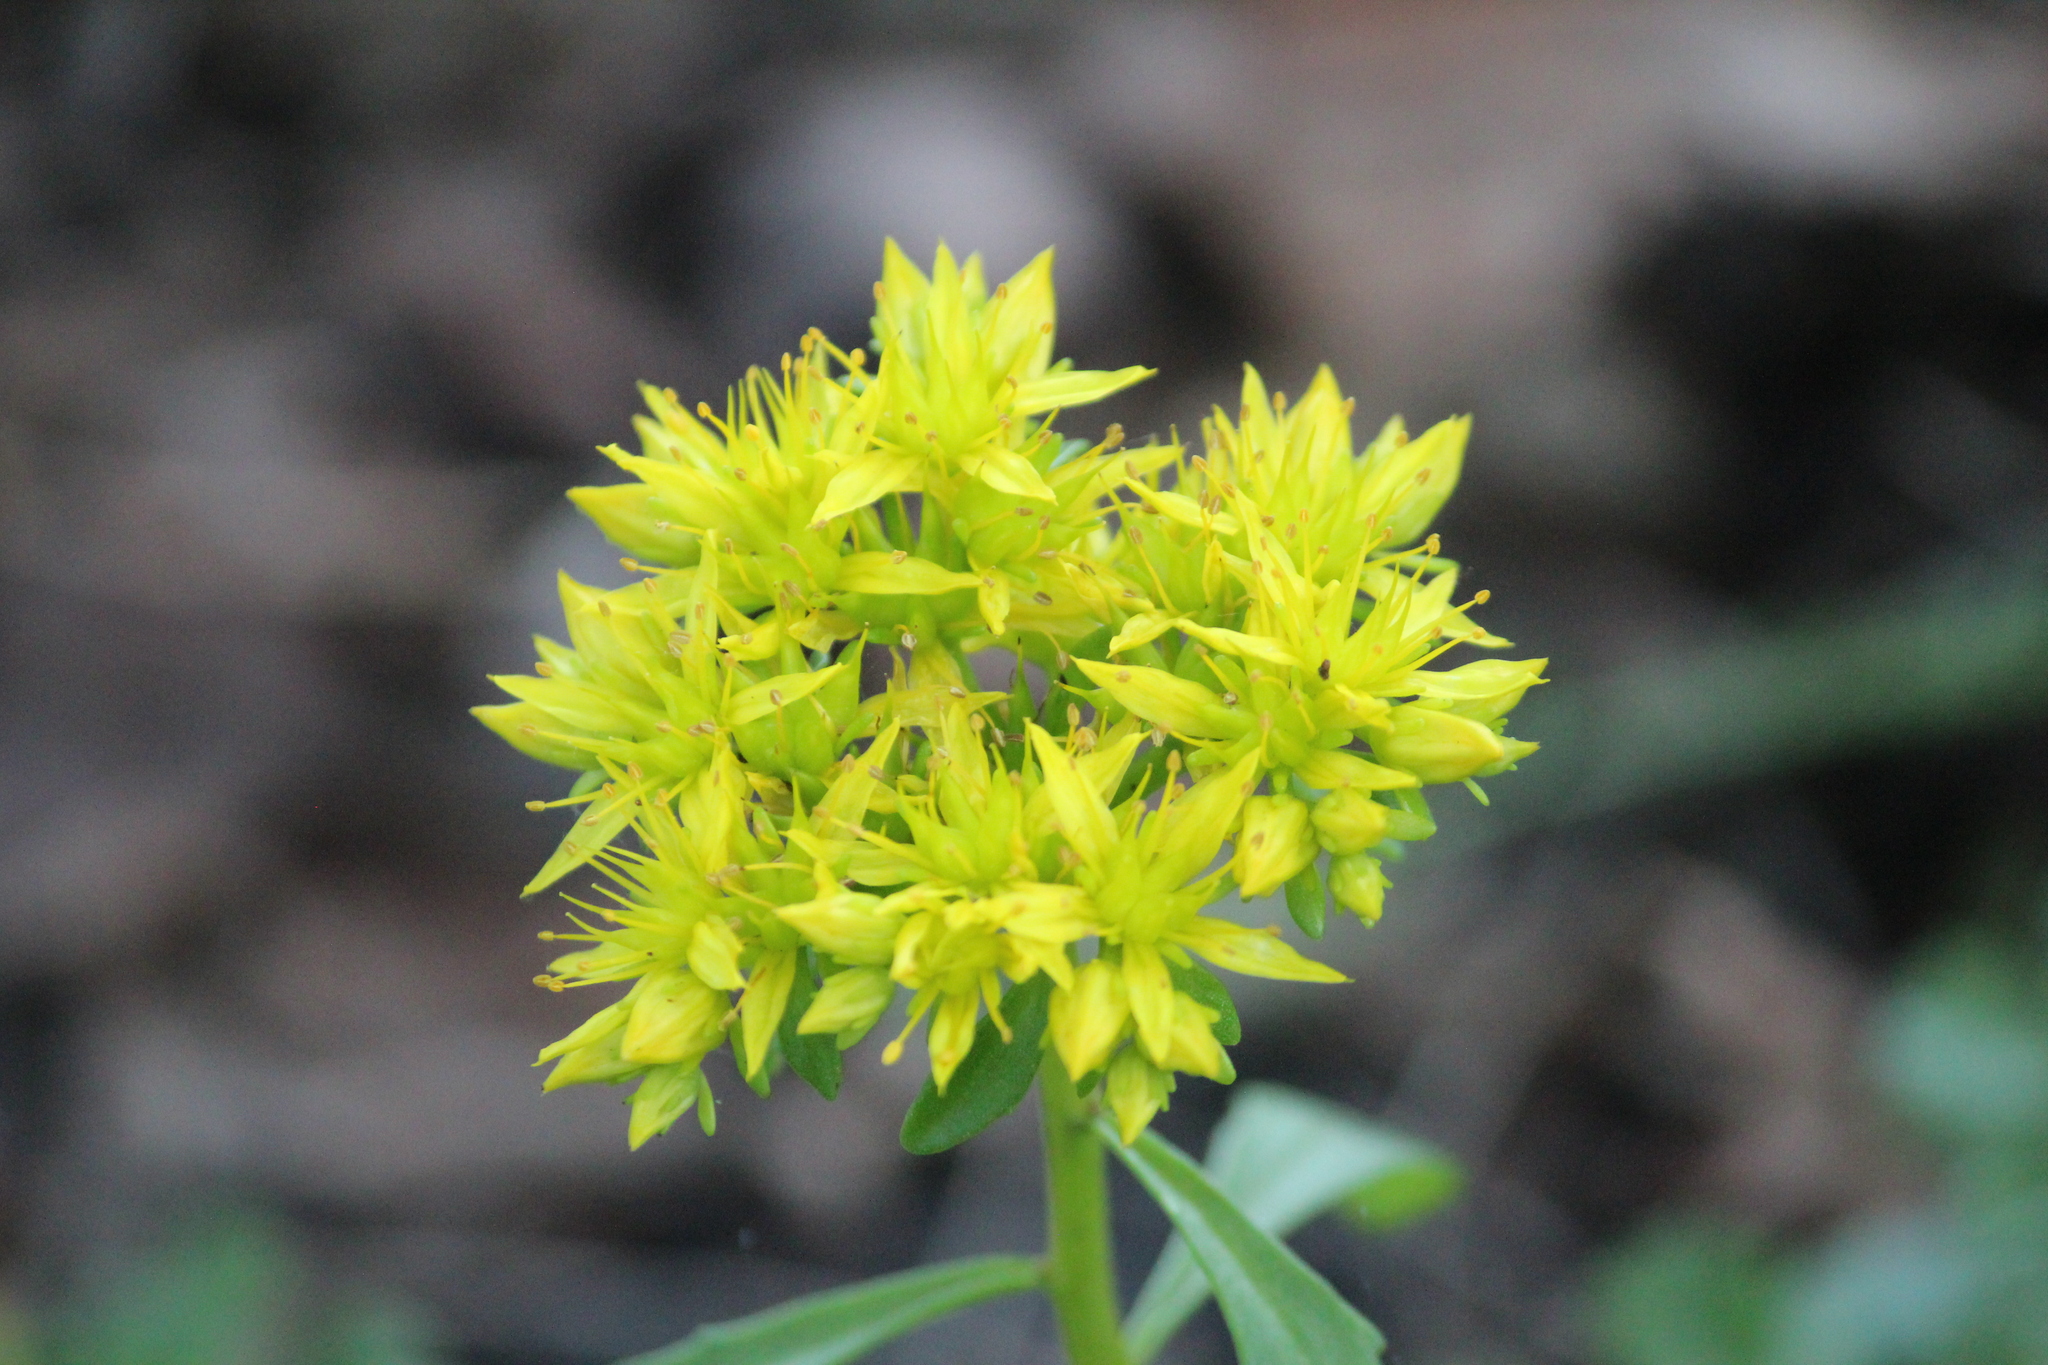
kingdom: Plantae
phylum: Tracheophyta
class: Magnoliopsida
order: Saxifragales
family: Crassulaceae
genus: Phedimus
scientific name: Phedimus hybridus
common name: Hybrid stonecrop
